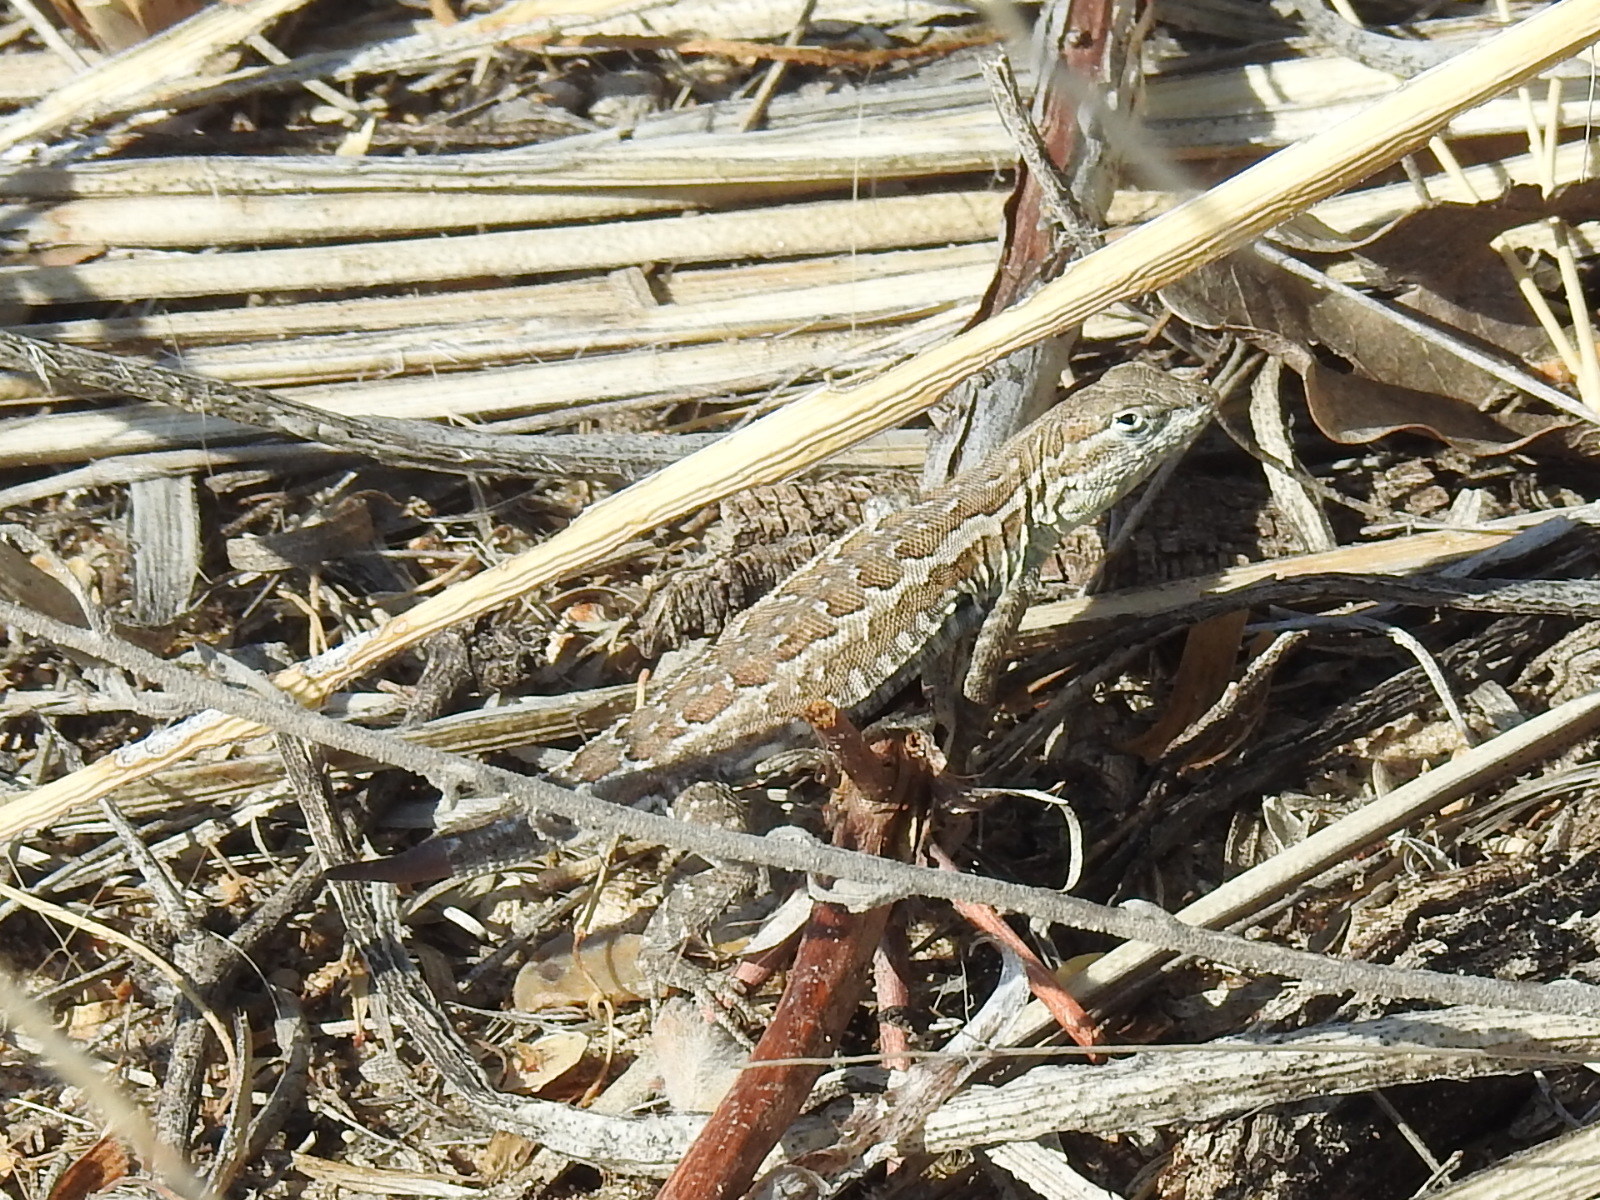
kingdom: Animalia
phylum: Chordata
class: Squamata
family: Phrynosomatidae
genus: Uta
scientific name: Uta stansburiana
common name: Side-blotched lizard
